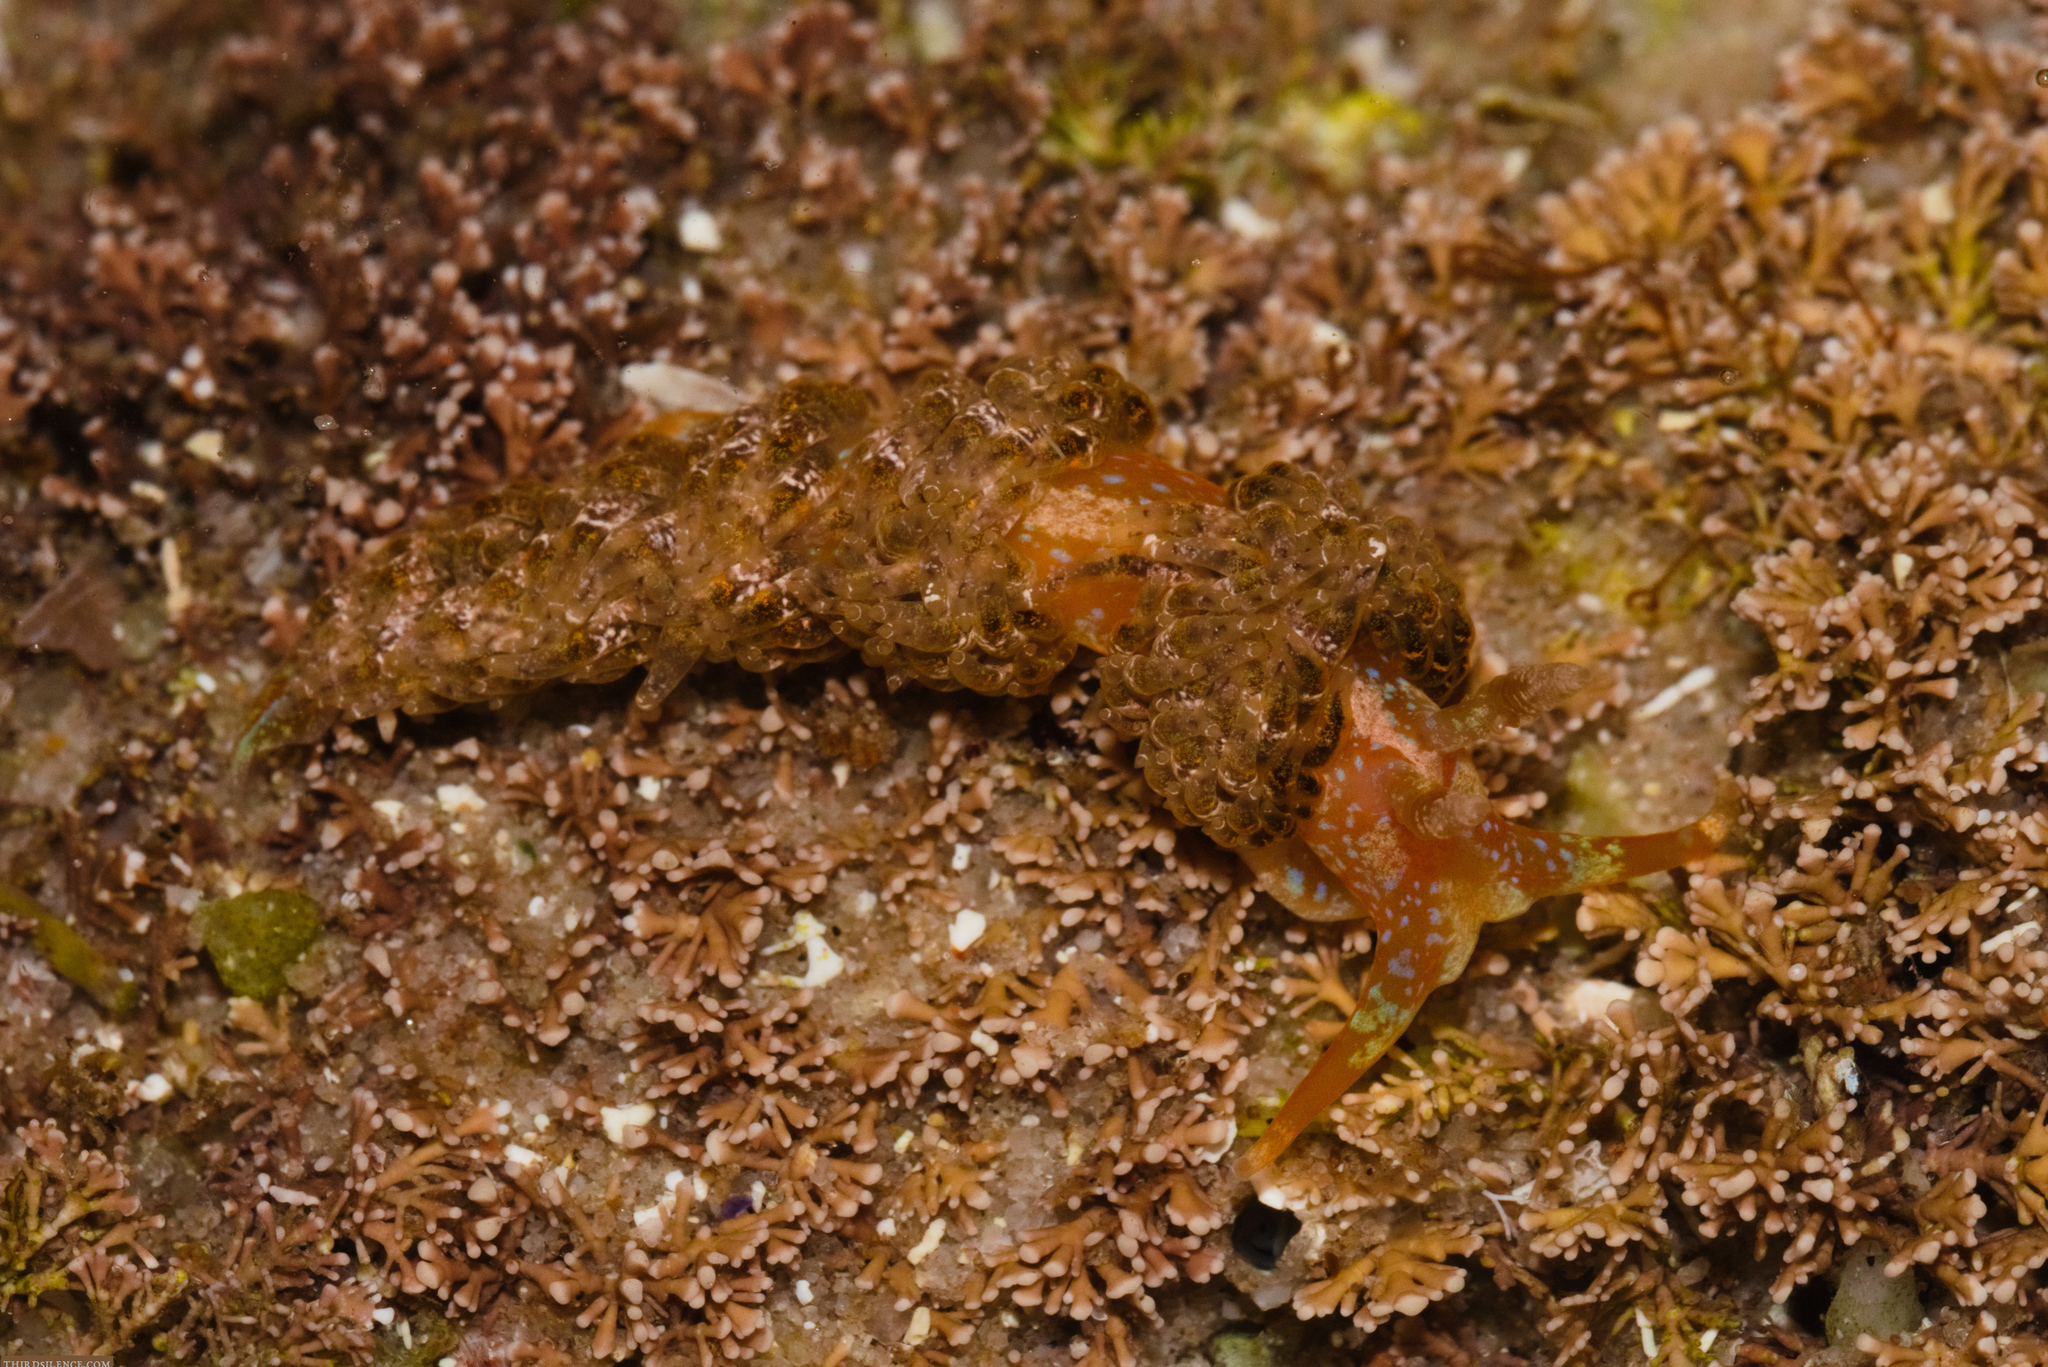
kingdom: Animalia
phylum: Mollusca
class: Gastropoda
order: Nudibranchia
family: Facelinidae
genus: Austraeolis
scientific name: Austraeolis ornata
